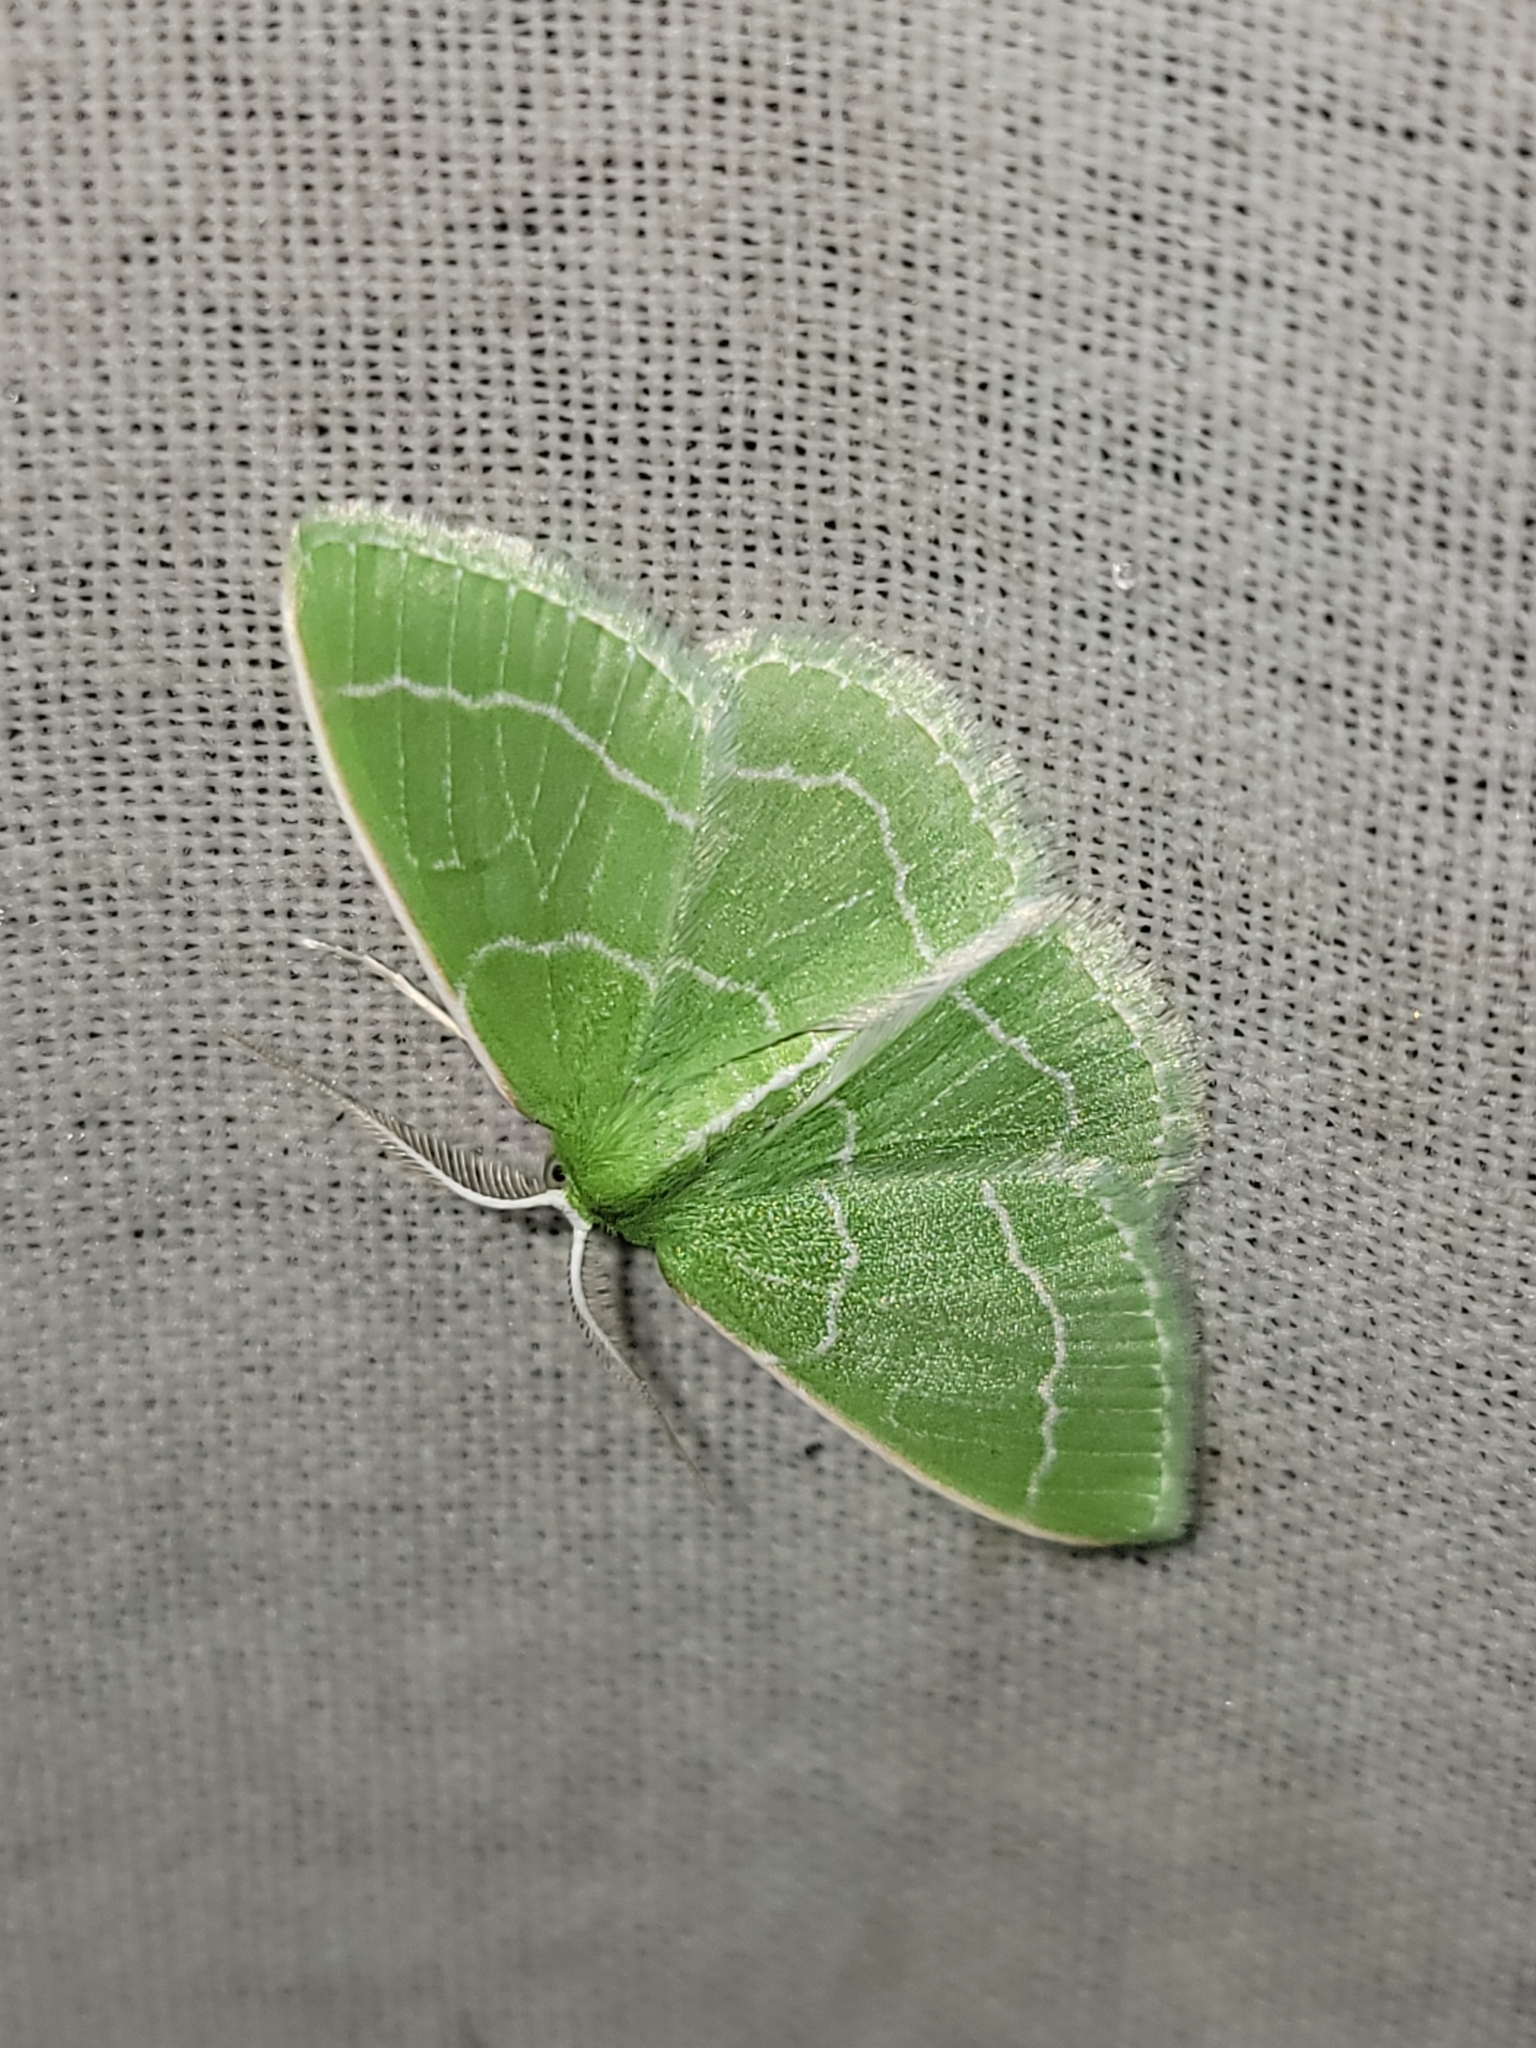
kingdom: Animalia
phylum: Arthropoda
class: Insecta
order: Lepidoptera
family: Geometridae
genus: Synchlora
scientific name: Synchlora aerata
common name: Wavy-lined emerald
